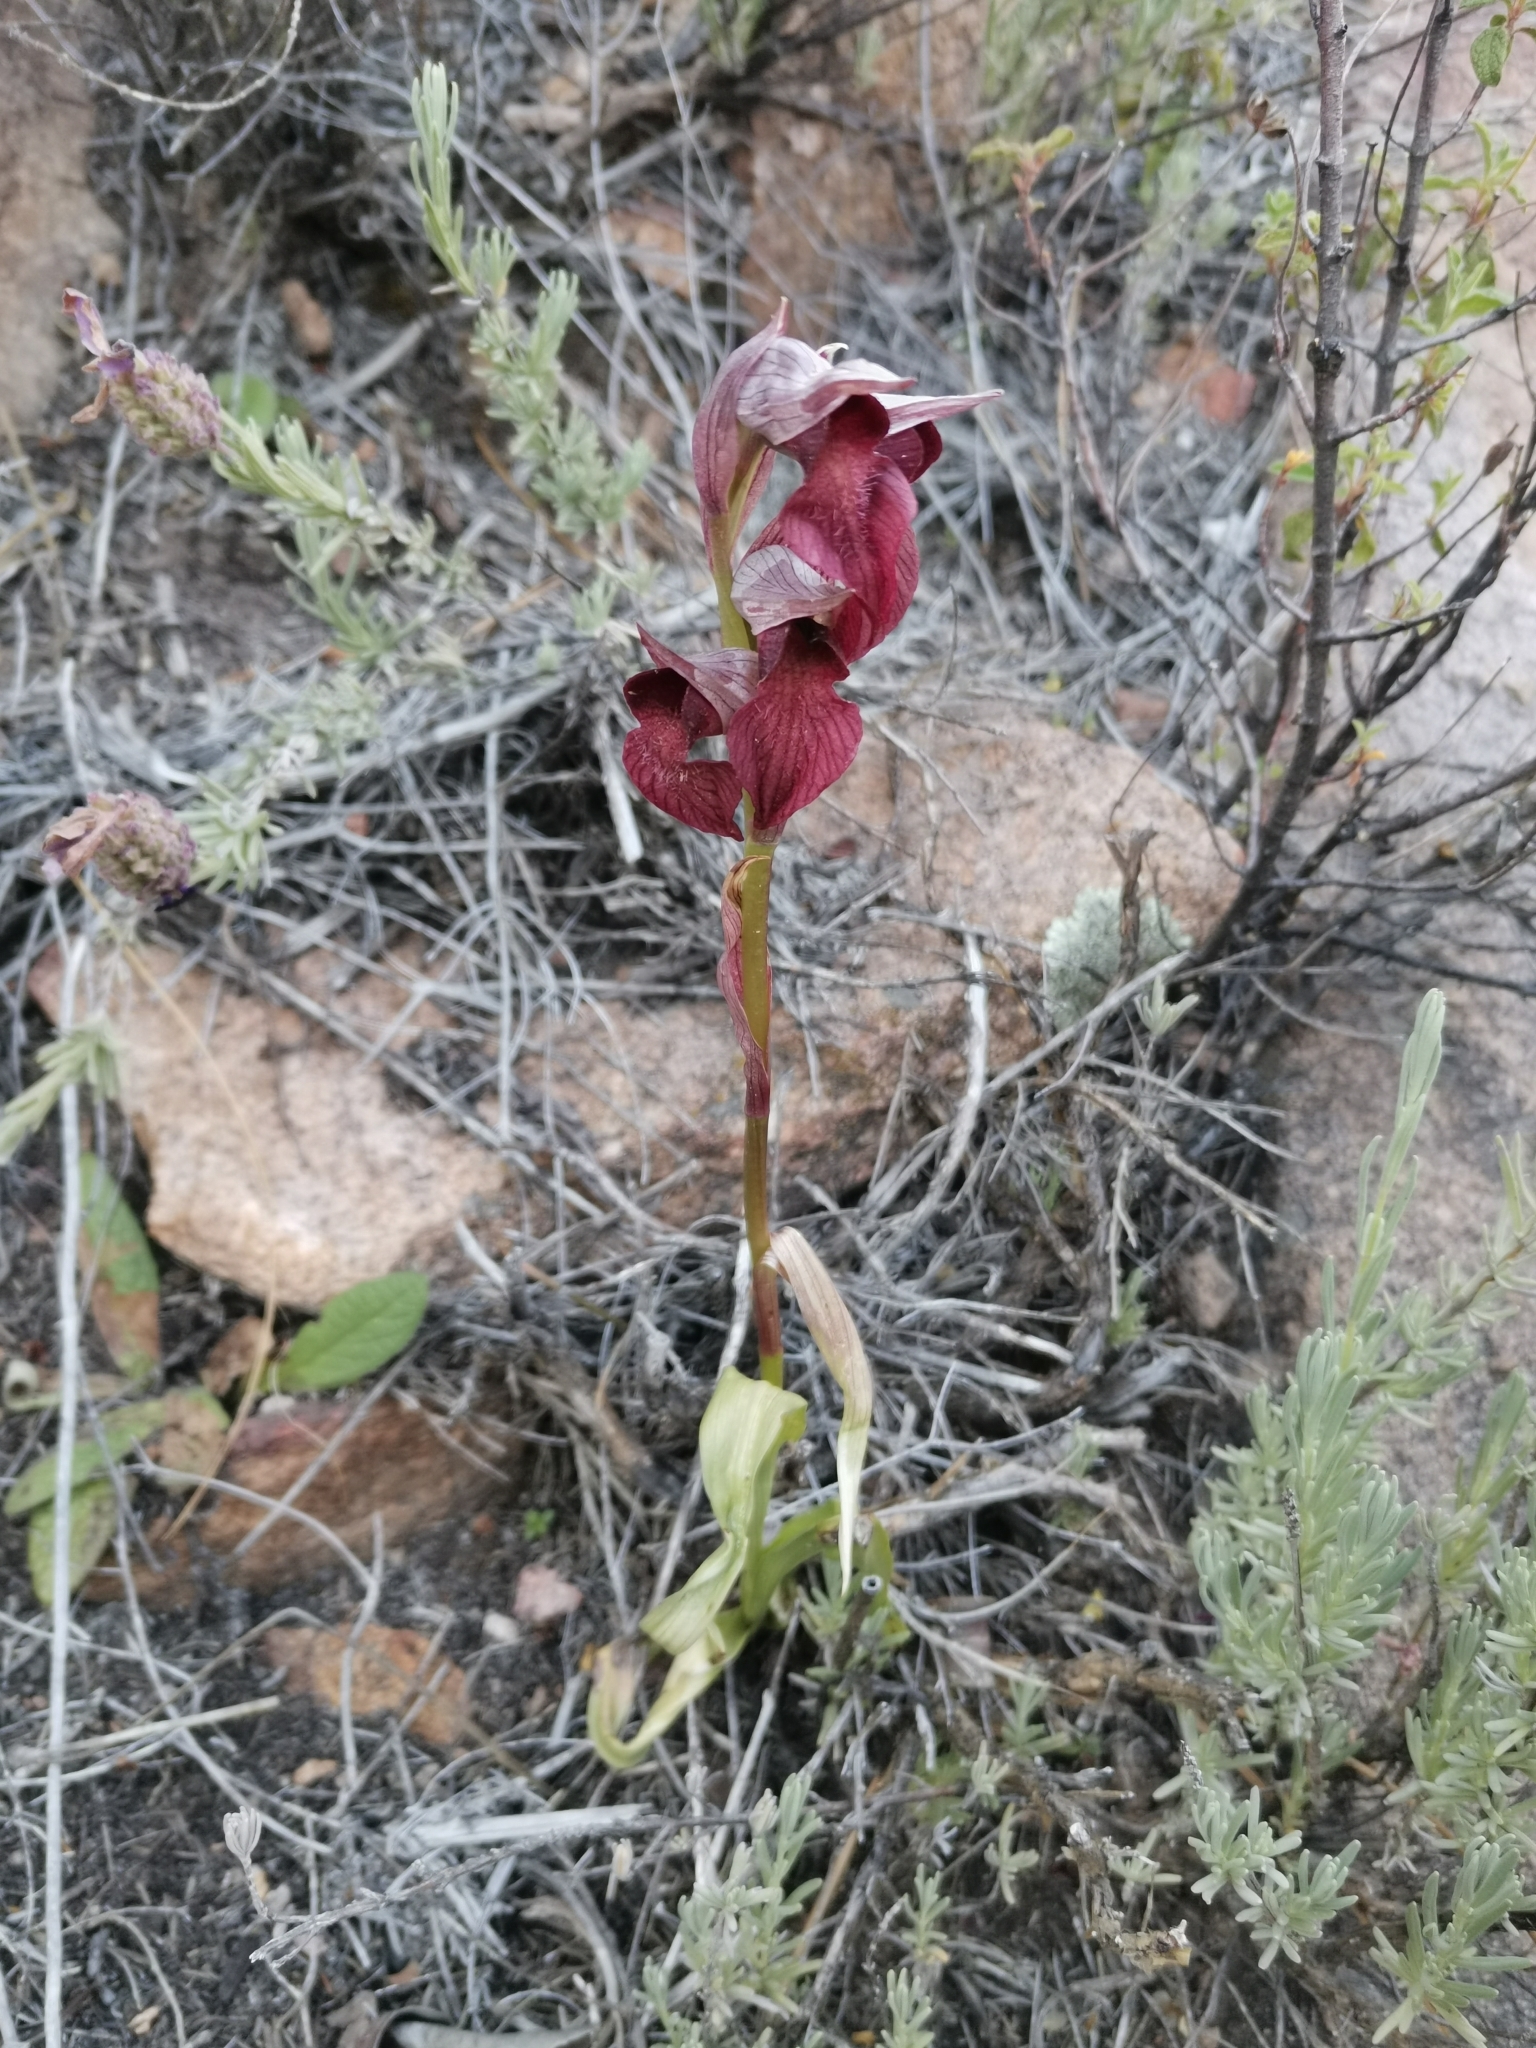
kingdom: Plantae
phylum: Tracheophyta
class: Liliopsida
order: Asparagales
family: Orchidaceae
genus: Serapias
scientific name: Serapias cordigera
